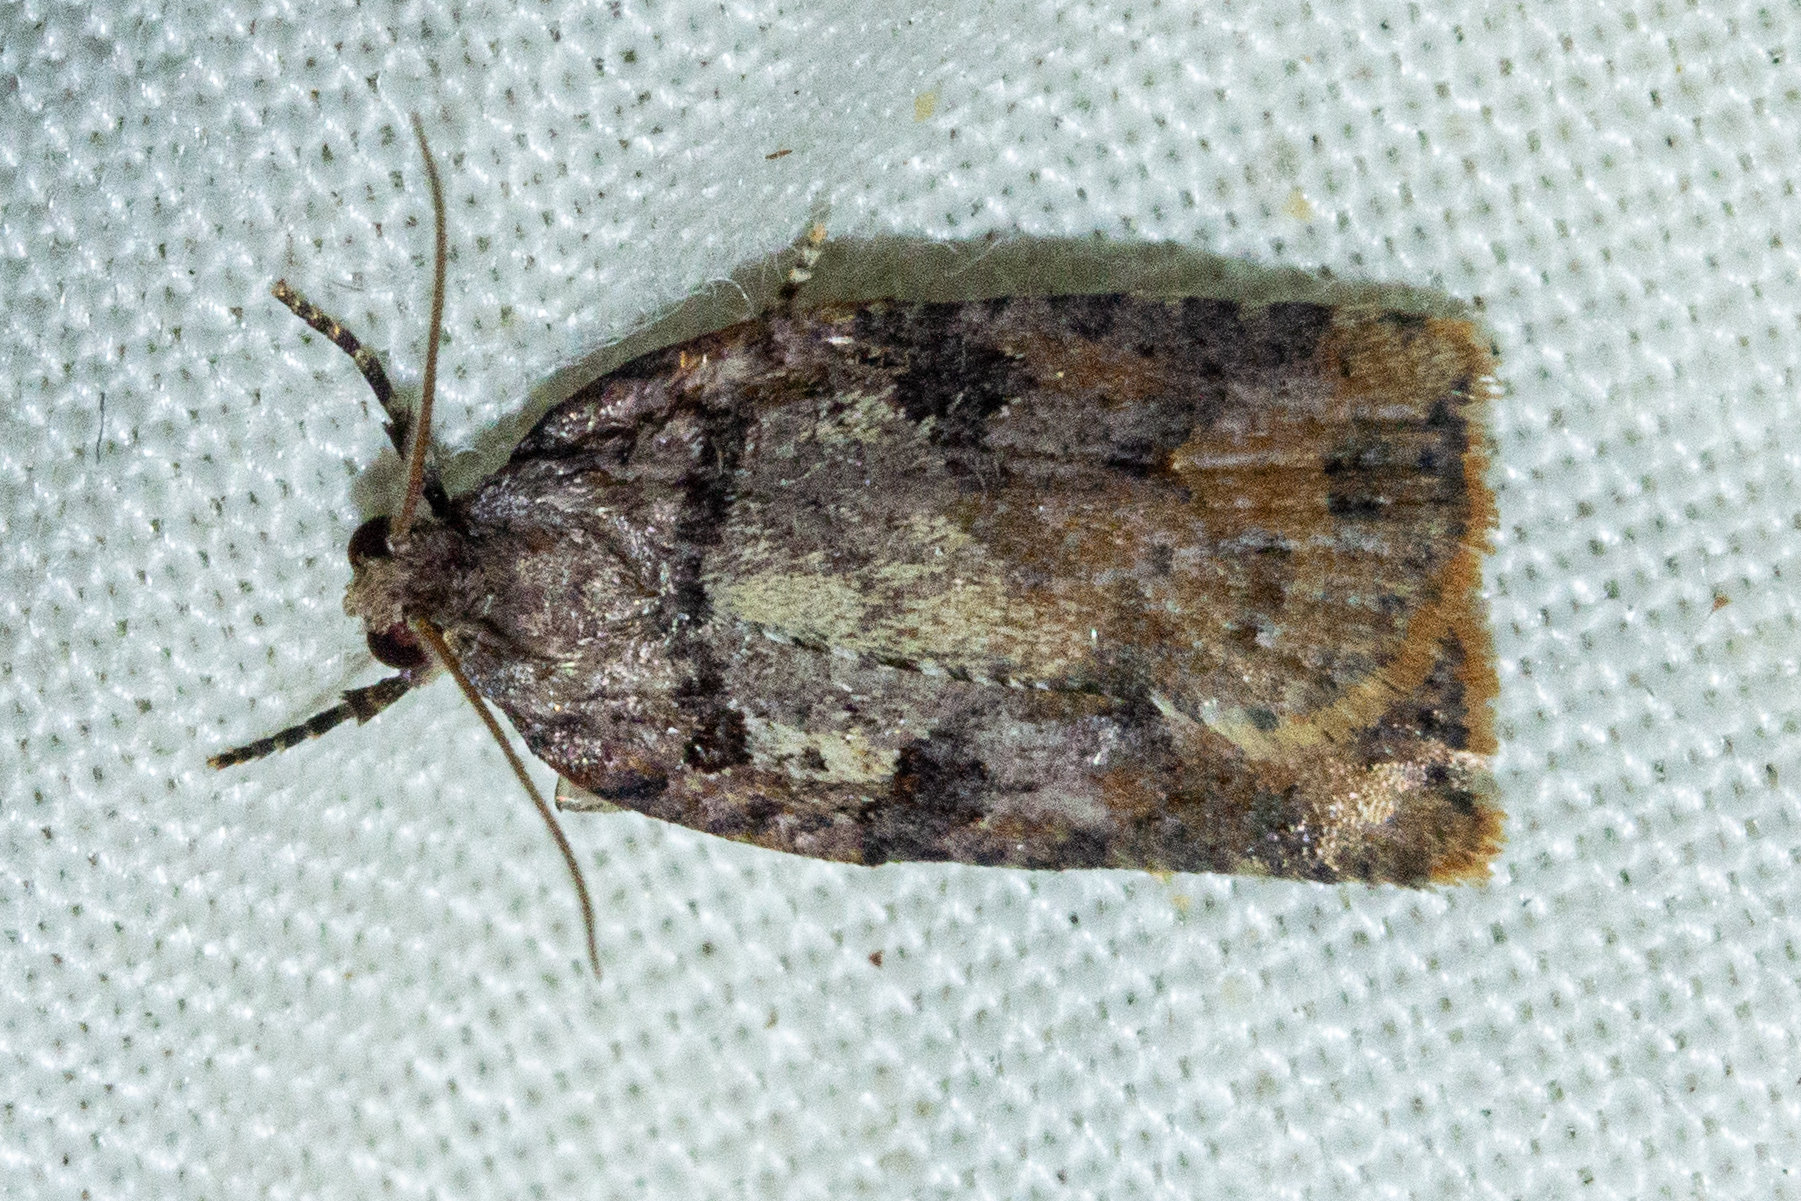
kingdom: Animalia
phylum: Arthropoda
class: Insecta
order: Lepidoptera
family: Tortricidae
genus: Ctenopseustis
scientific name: Ctenopseustis obliquana
